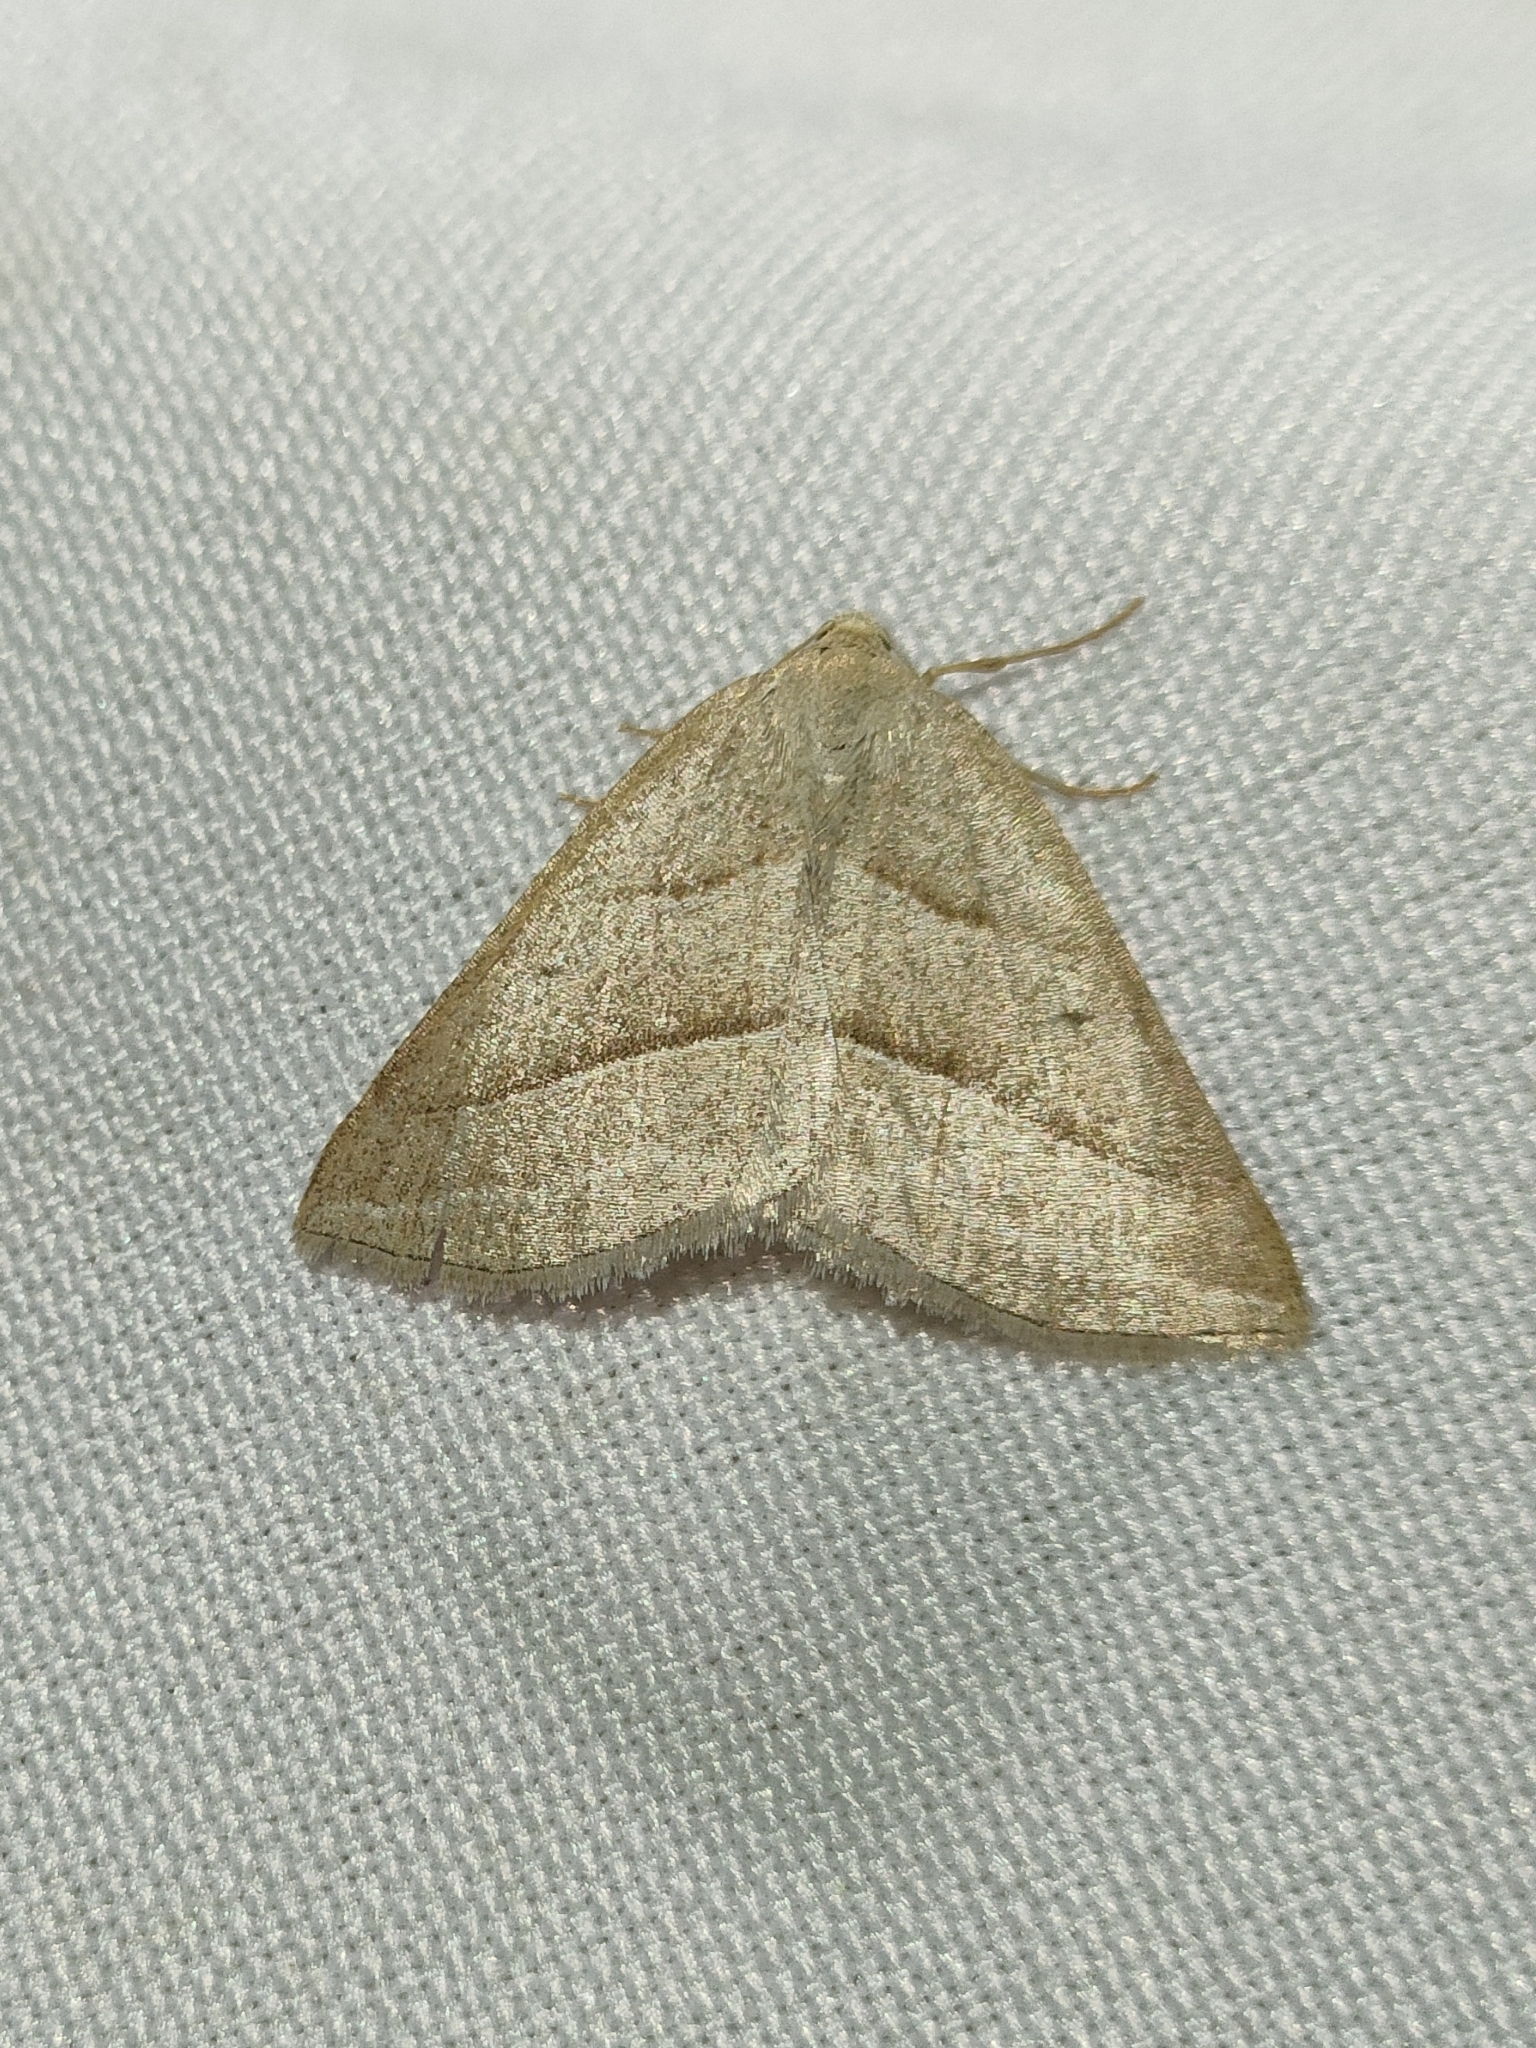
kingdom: Animalia
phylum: Arthropoda
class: Insecta
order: Lepidoptera
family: Pterophoridae
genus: Pterophorus
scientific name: Pterophorus Petrophora chlorosata
